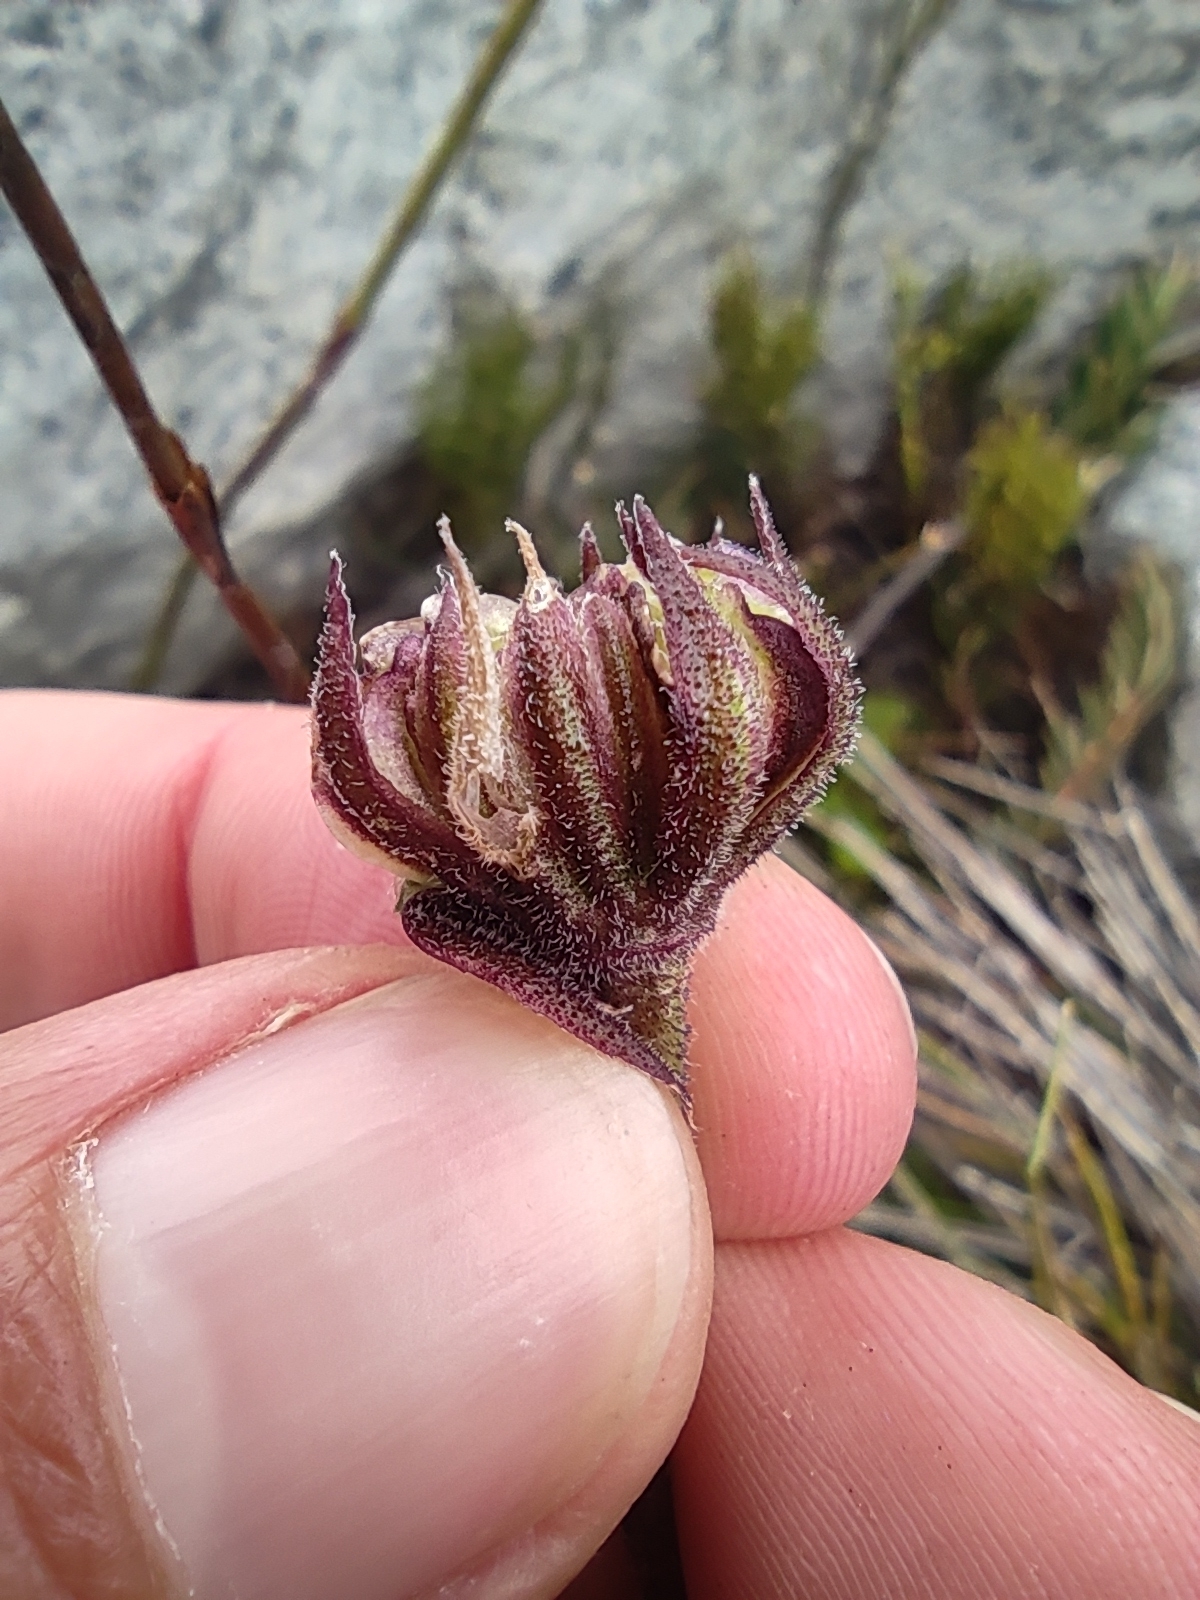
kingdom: Plantae
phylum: Tracheophyta
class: Magnoliopsida
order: Asterales
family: Asteraceae
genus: Dimorphotheca
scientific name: Dimorphotheca montana
